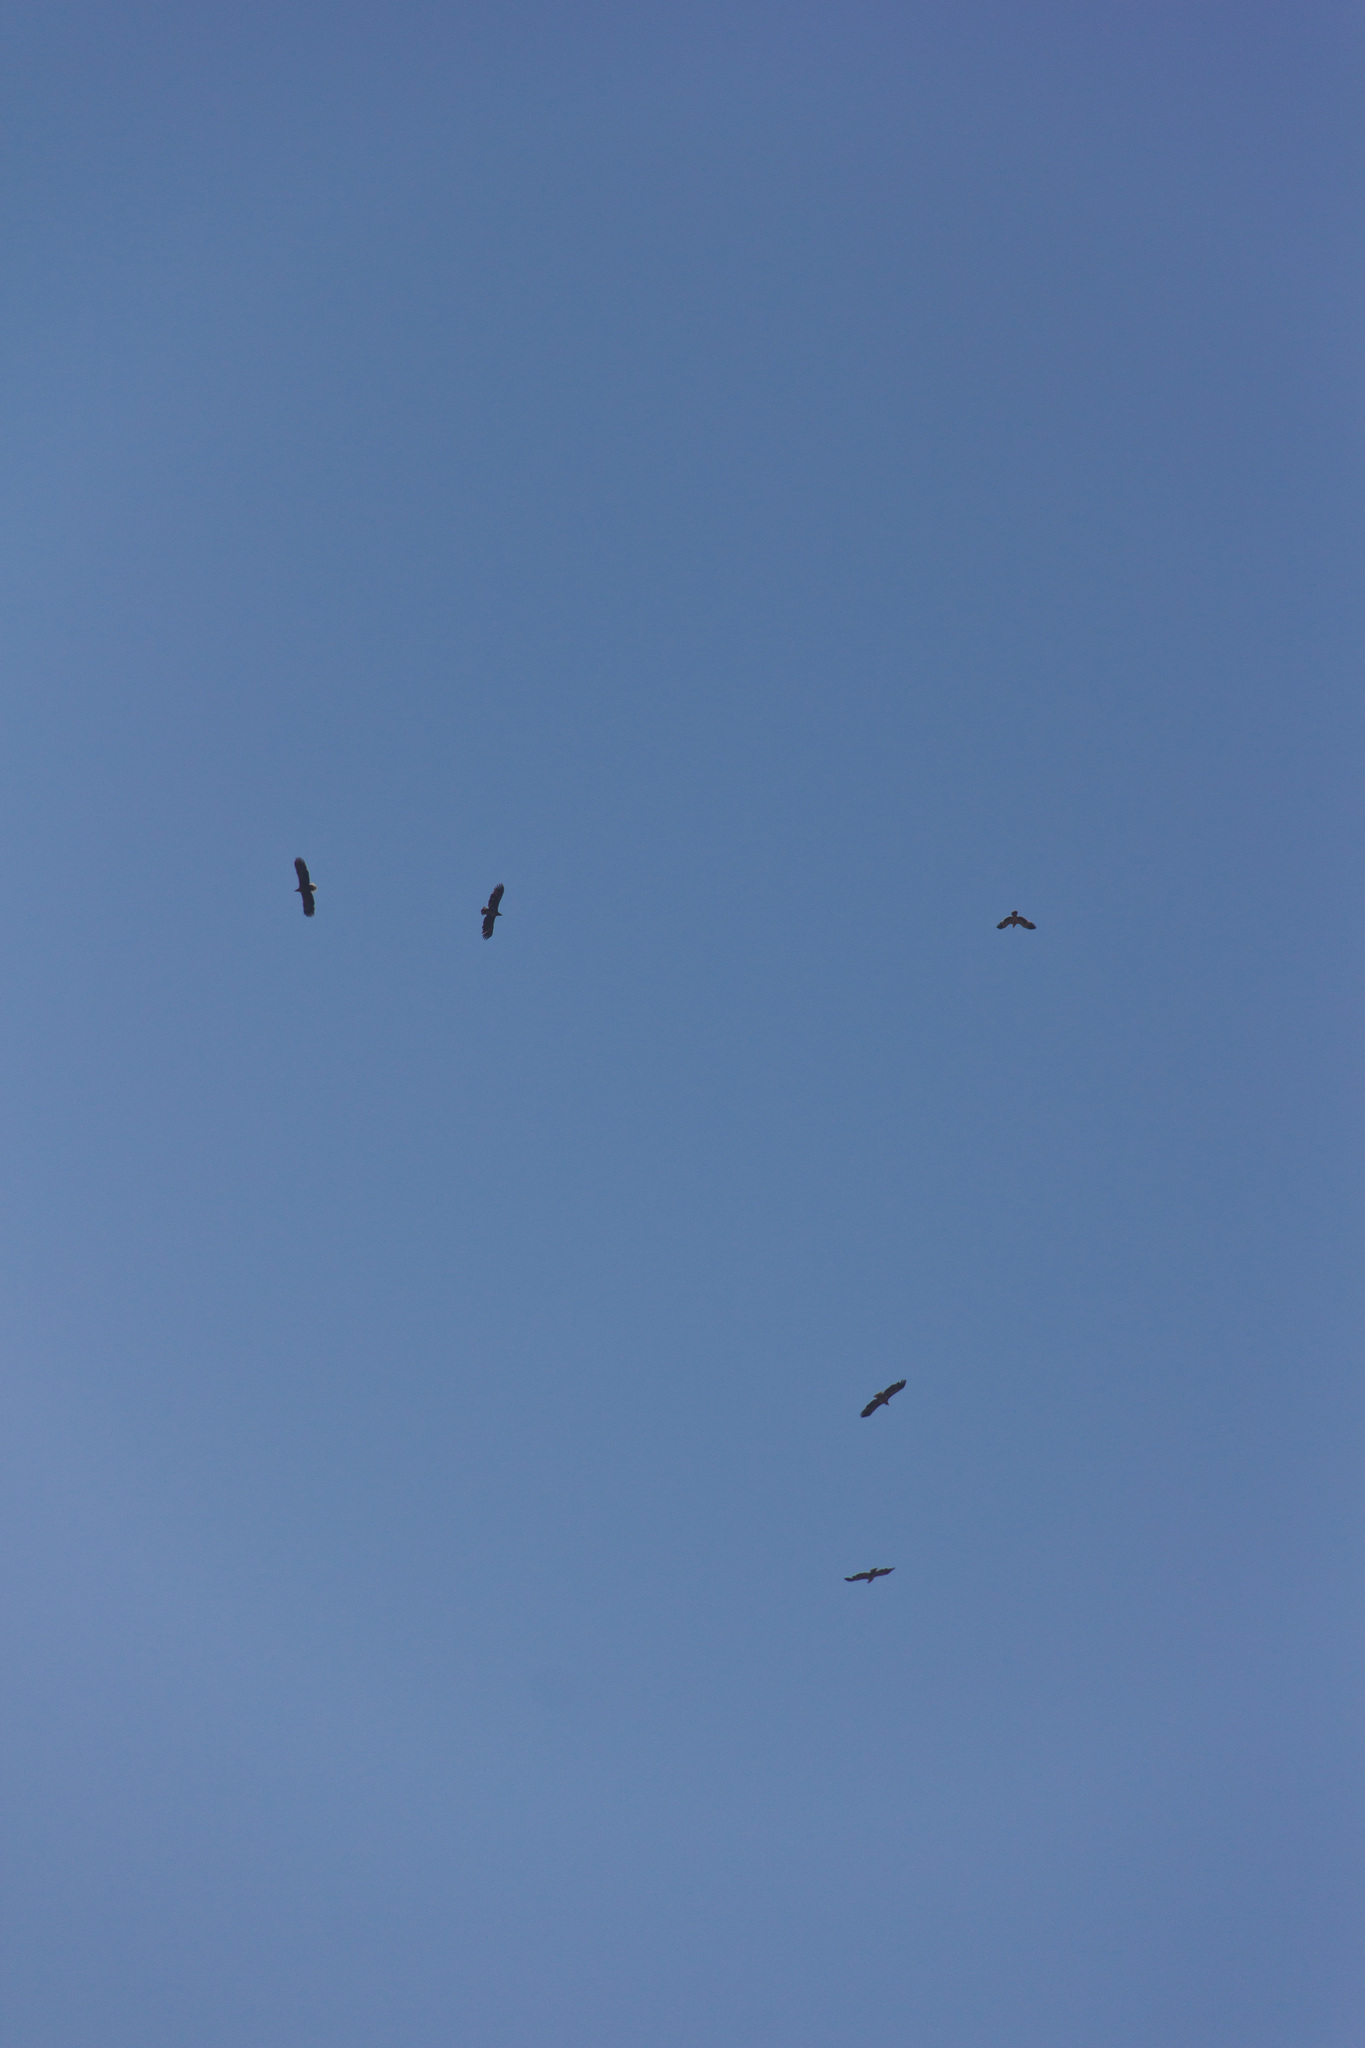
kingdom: Animalia
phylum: Chordata
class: Aves
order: Accipitriformes
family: Accipitridae
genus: Haliaeetus
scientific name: Haliaeetus albicilla
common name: White-tailed eagle
